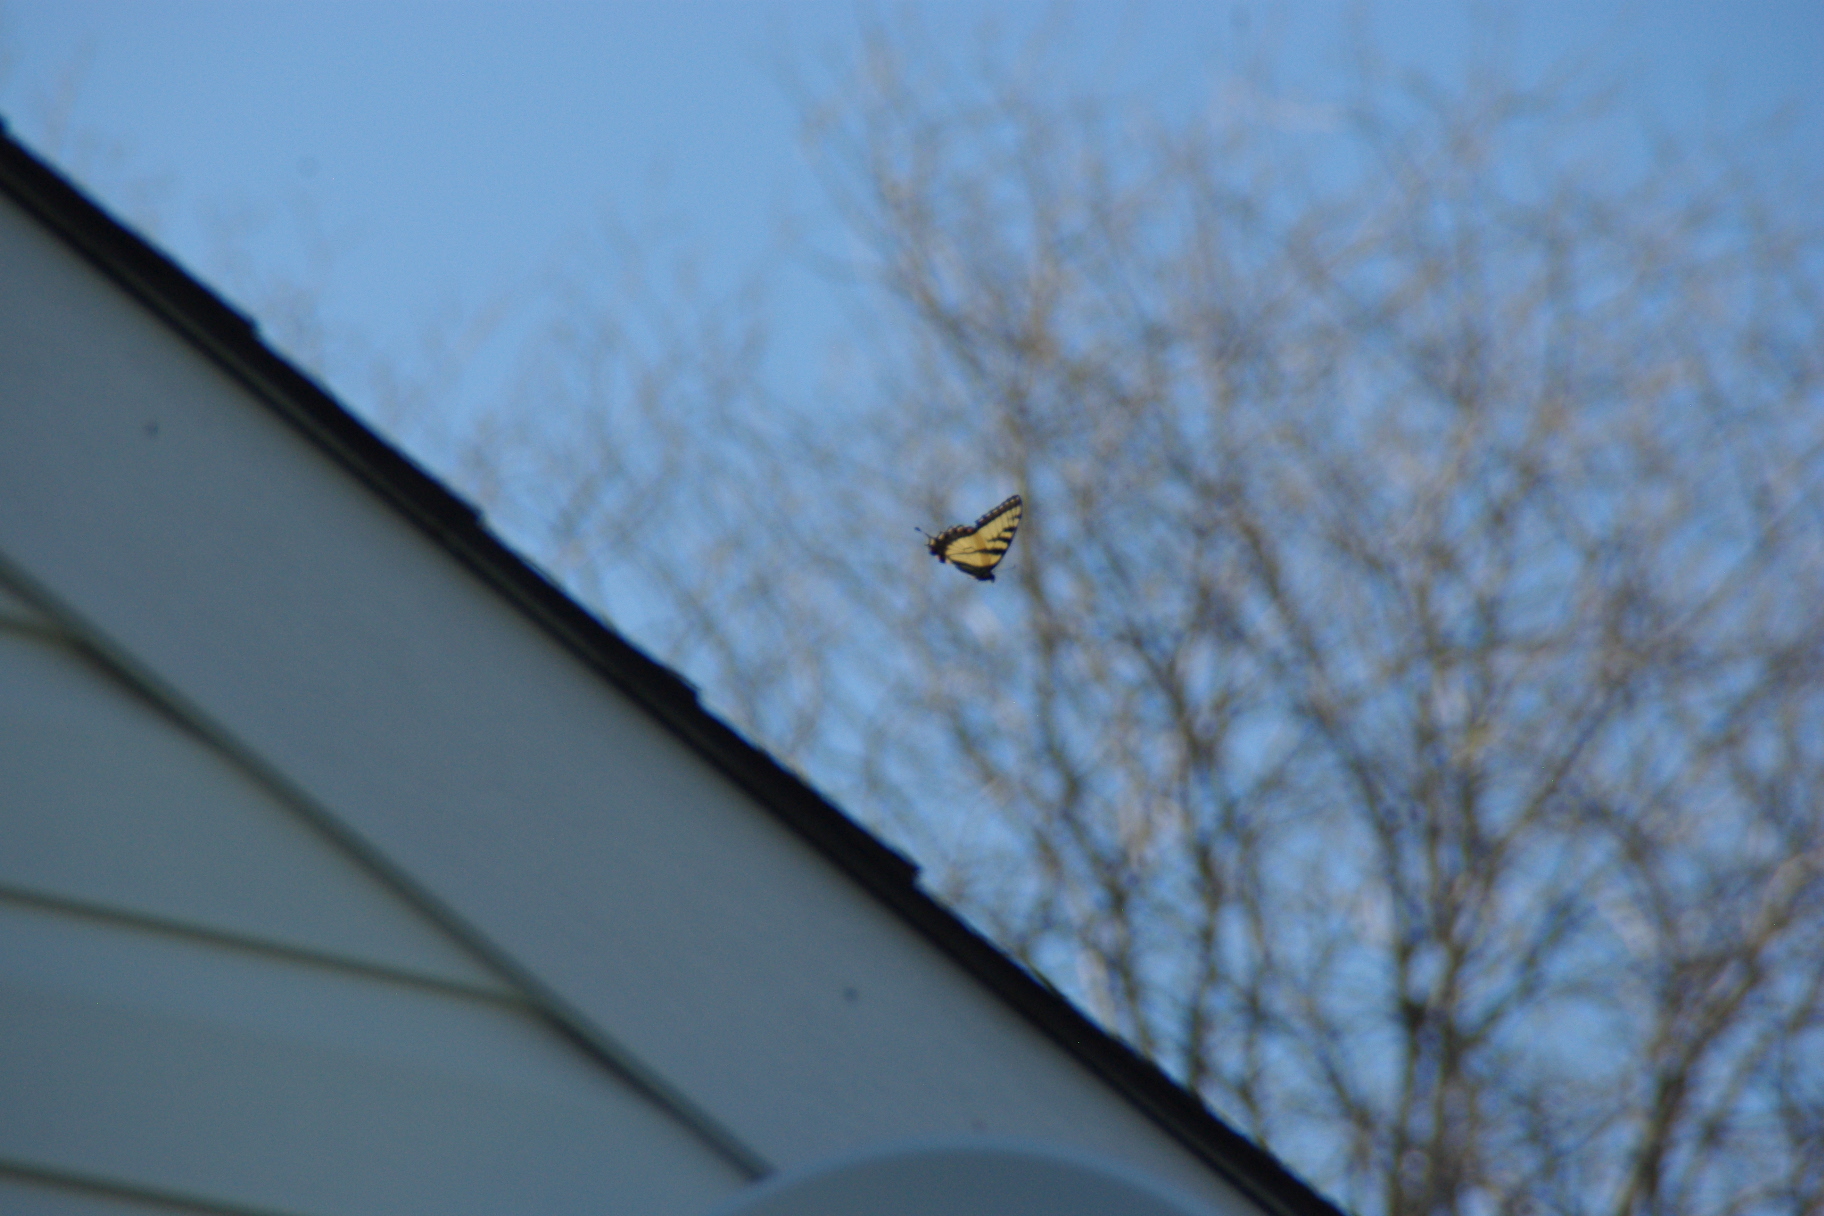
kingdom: Animalia
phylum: Arthropoda
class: Insecta
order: Lepidoptera
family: Papilionidae
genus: Papilio
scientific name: Papilio glaucus
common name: Tiger swallowtail
